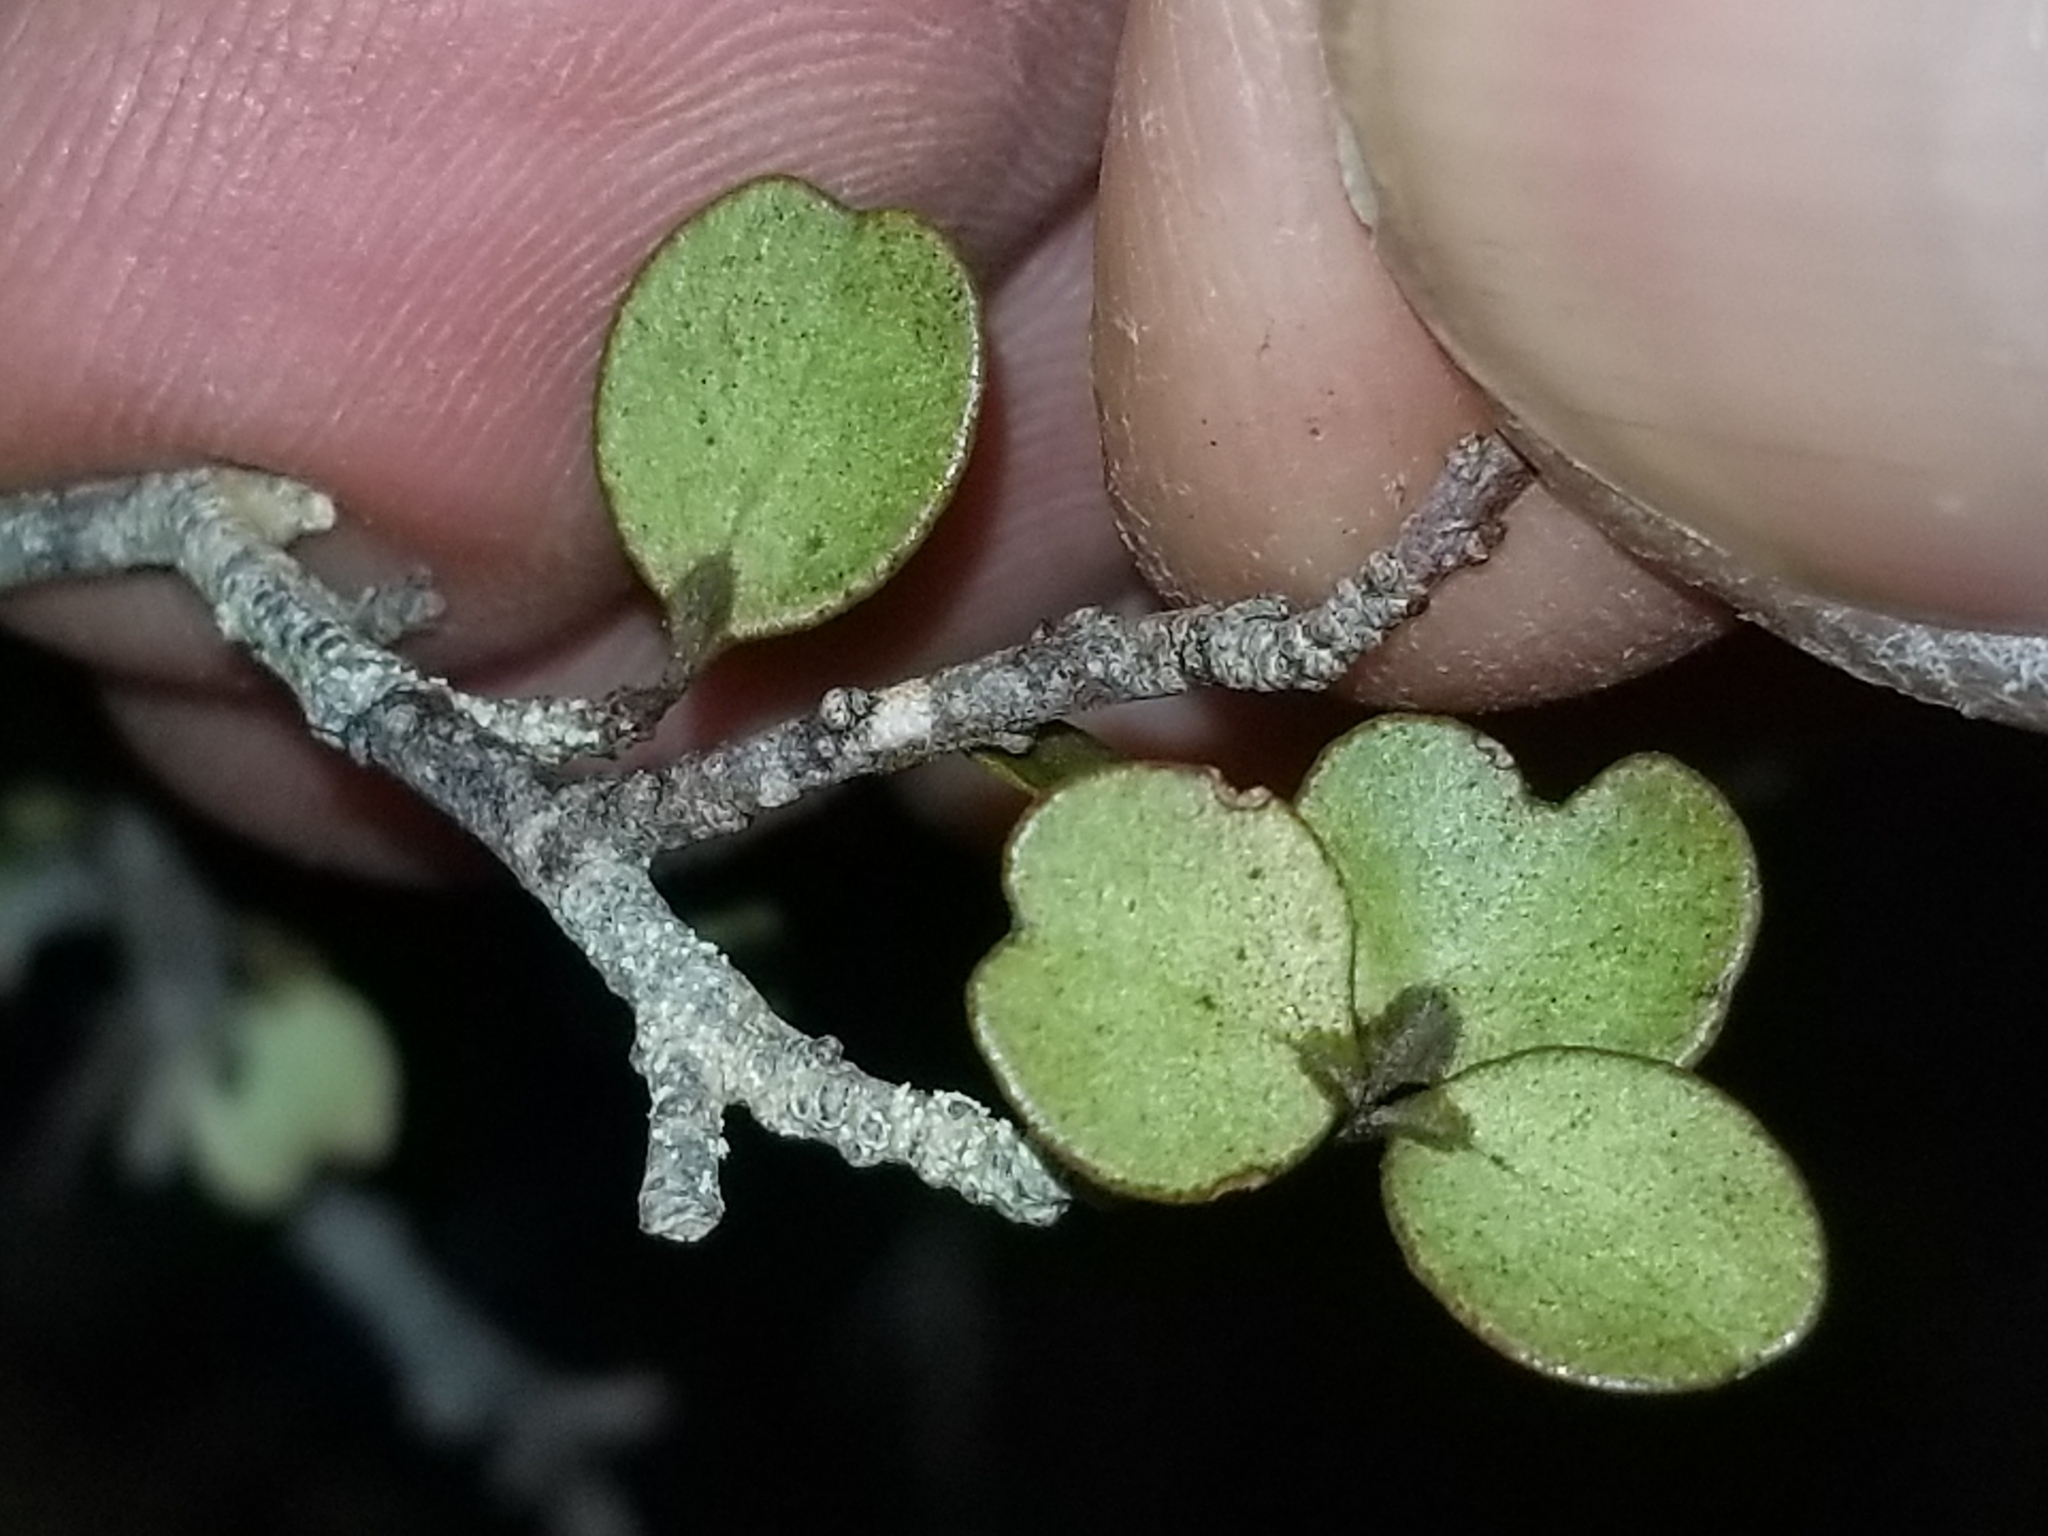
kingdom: Plantae
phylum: Tracheophyta
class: Magnoliopsida
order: Ericales
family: Primulaceae
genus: Myrsine
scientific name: Myrsine divaricata
